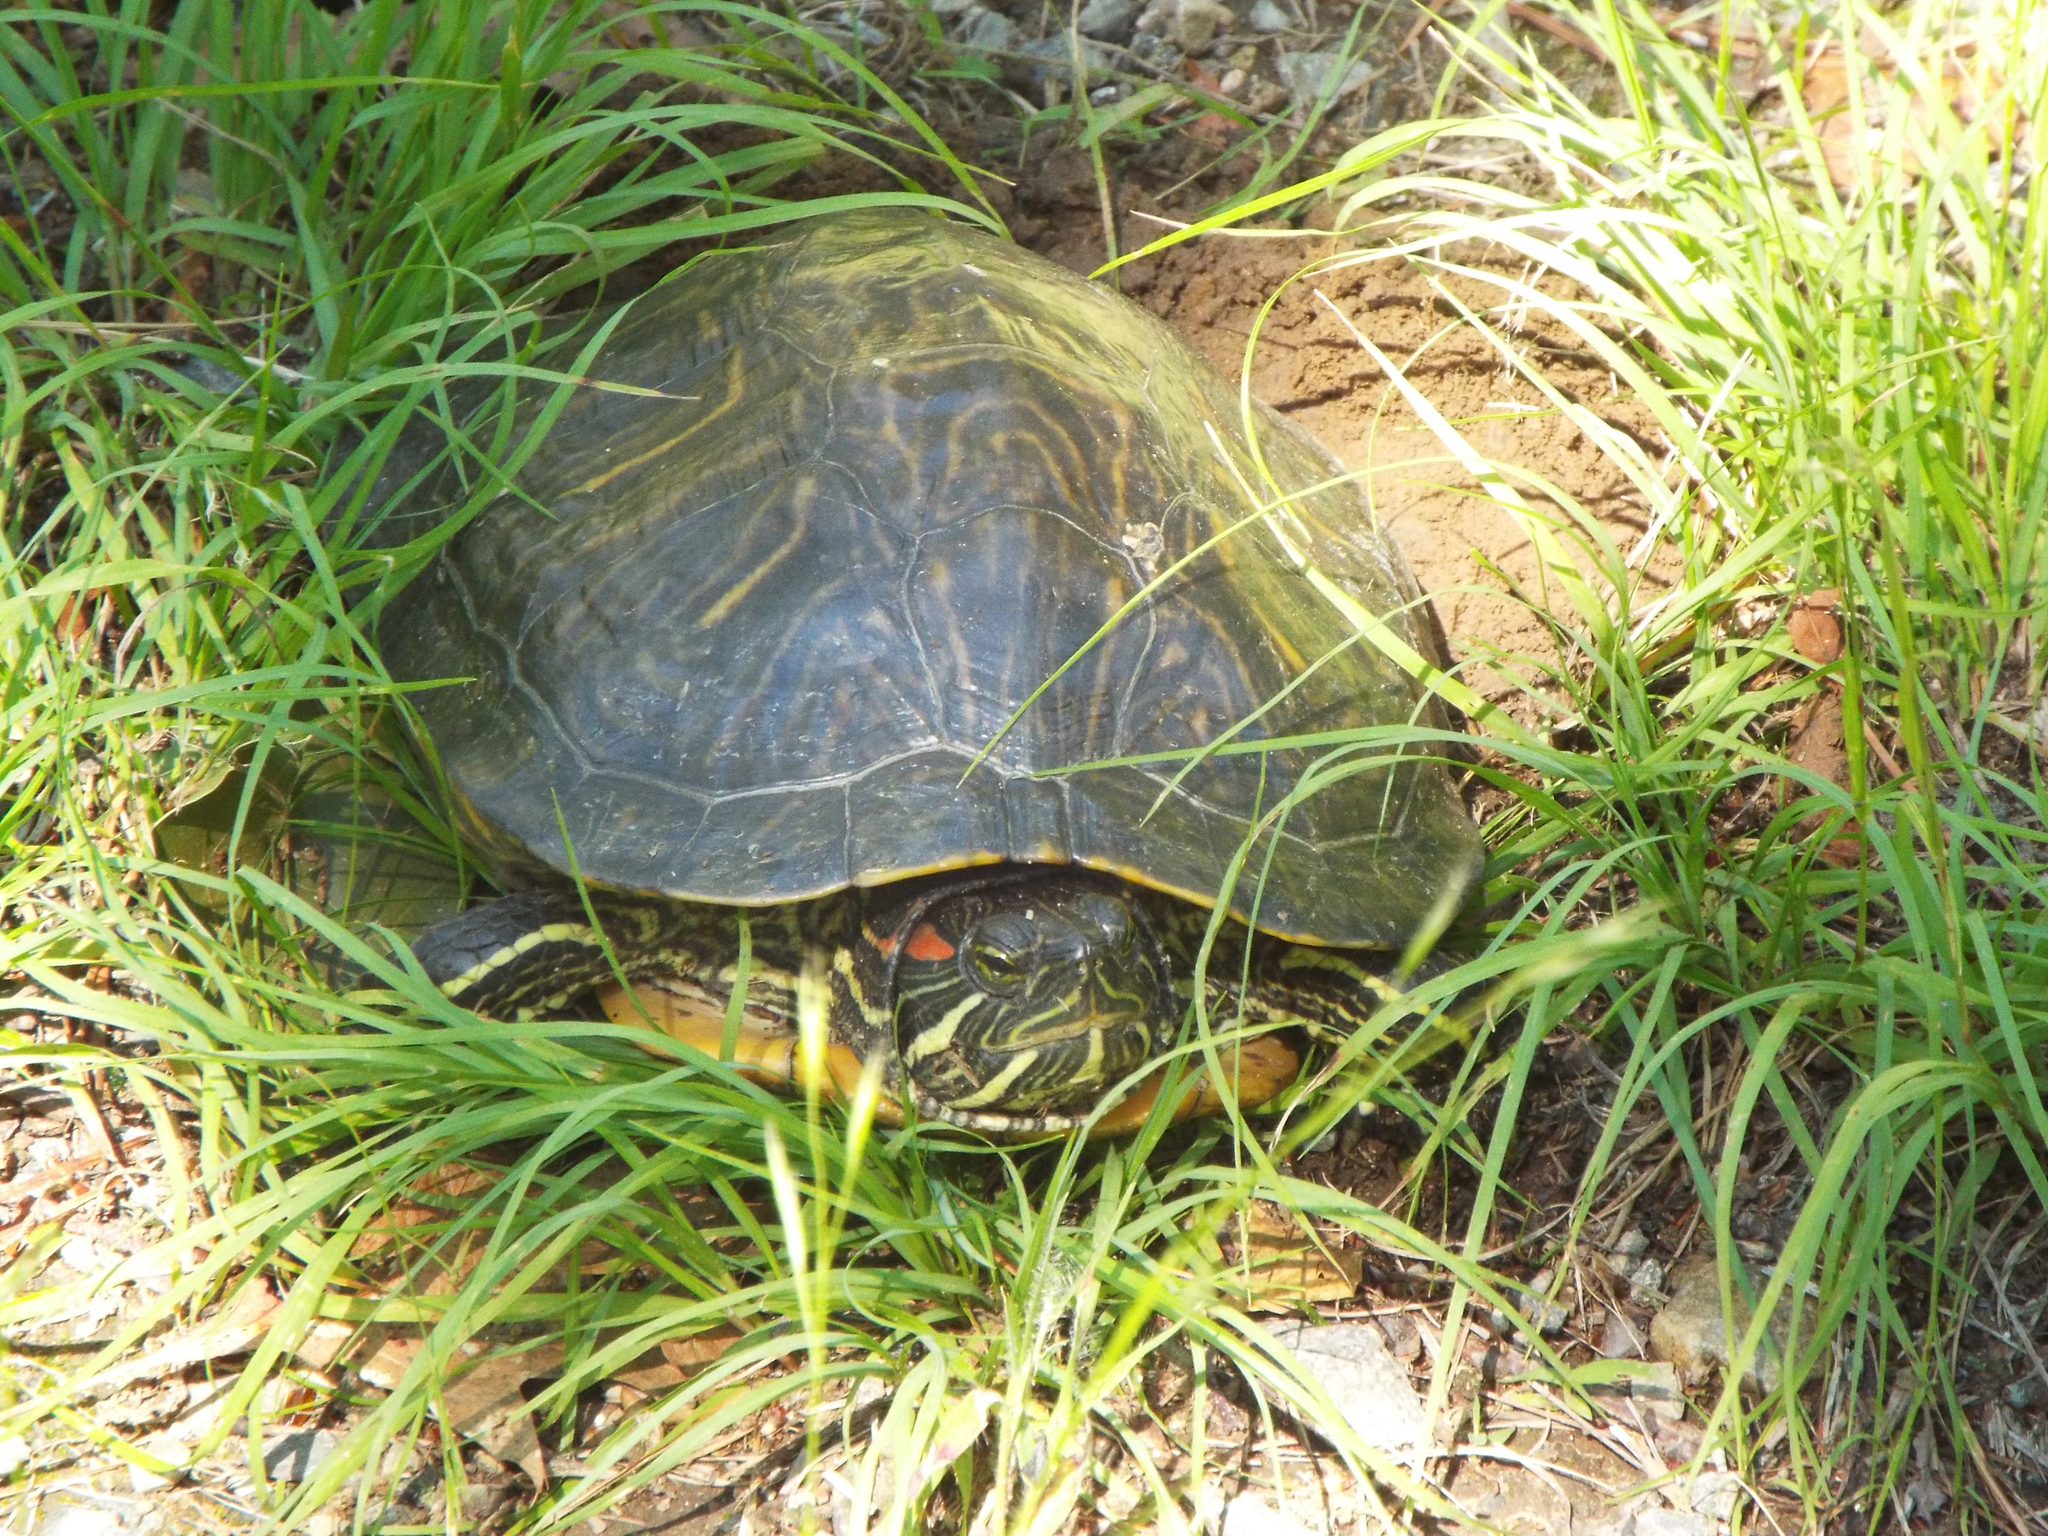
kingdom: Animalia
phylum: Chordata
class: Testudines
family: Emydidae
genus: Trachemys
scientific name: Trachemys scripta
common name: Slider
